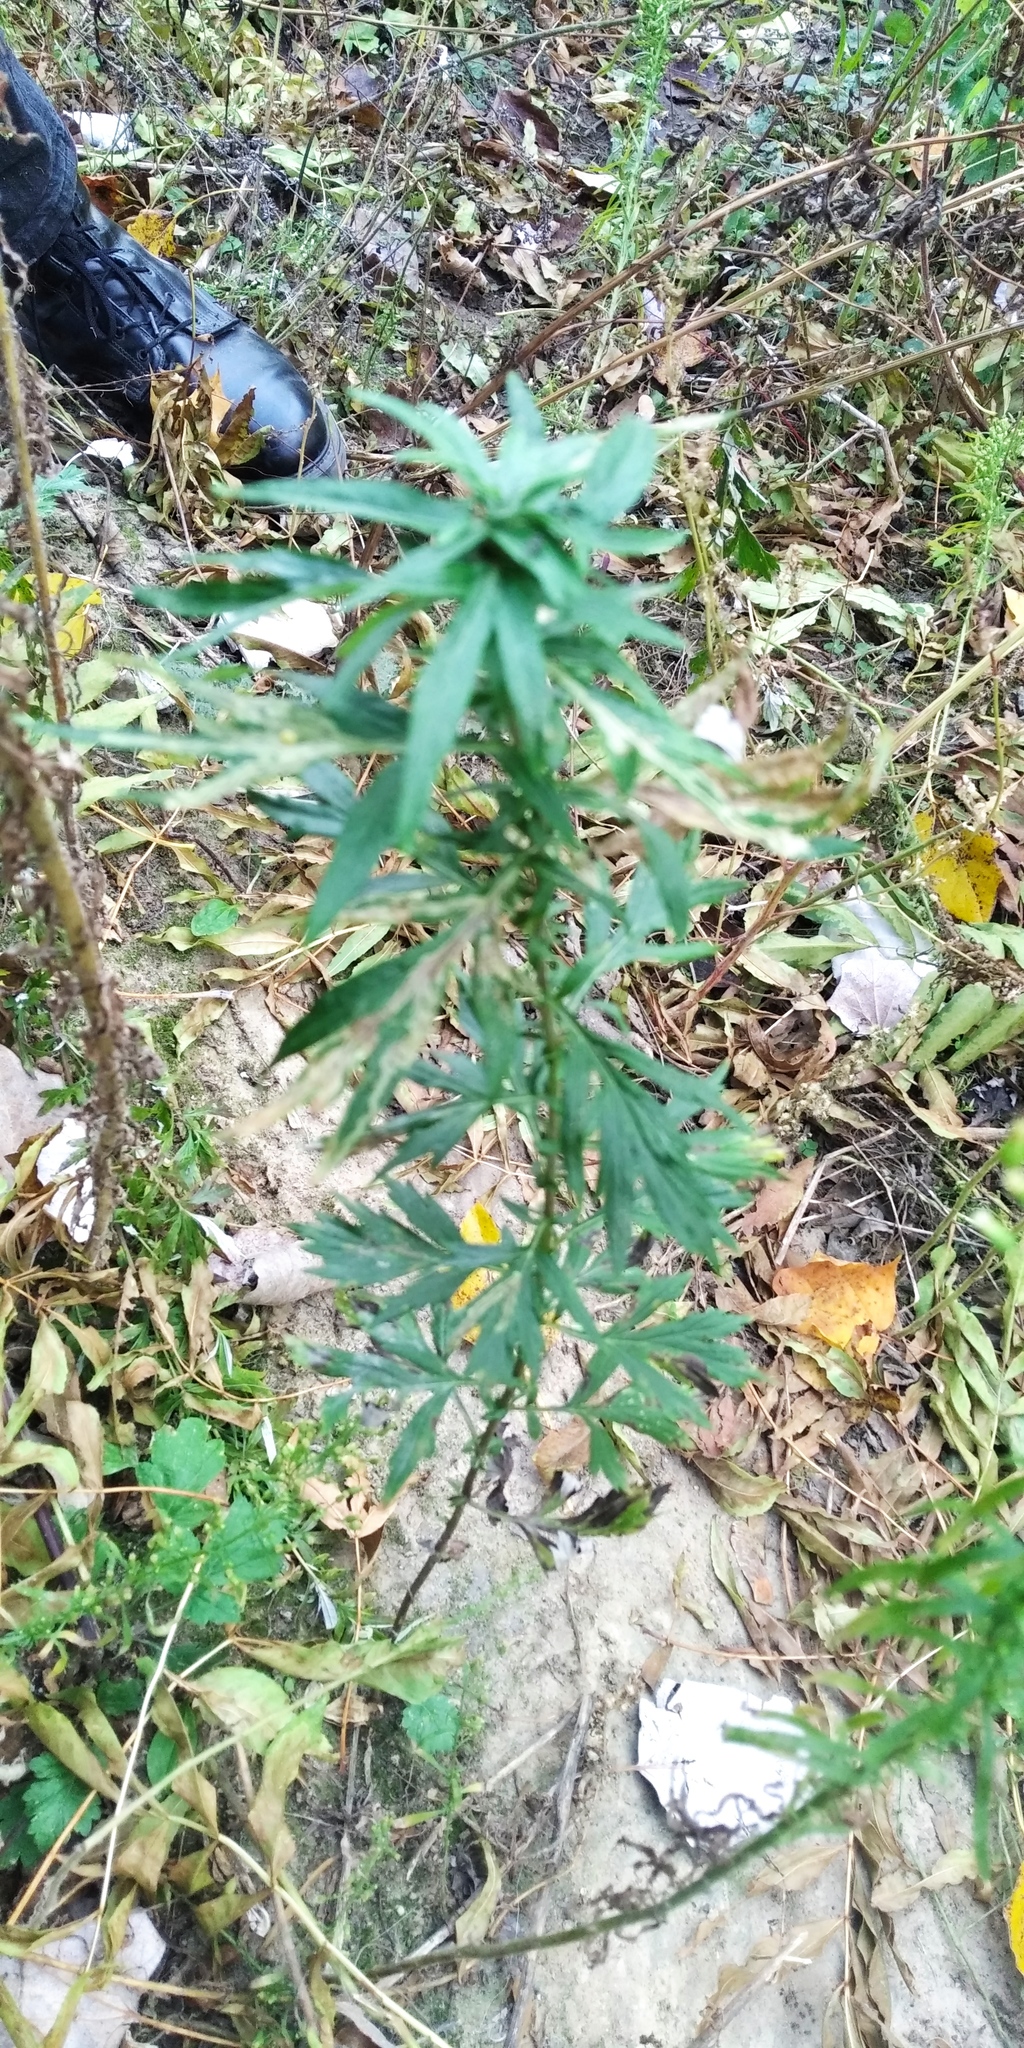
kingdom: Plantae
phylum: Tracheophyta
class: Magnoliopsida
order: Asterales
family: Asteraceae
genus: Artemisia
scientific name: Artemisia vulgaris
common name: Mugwort
